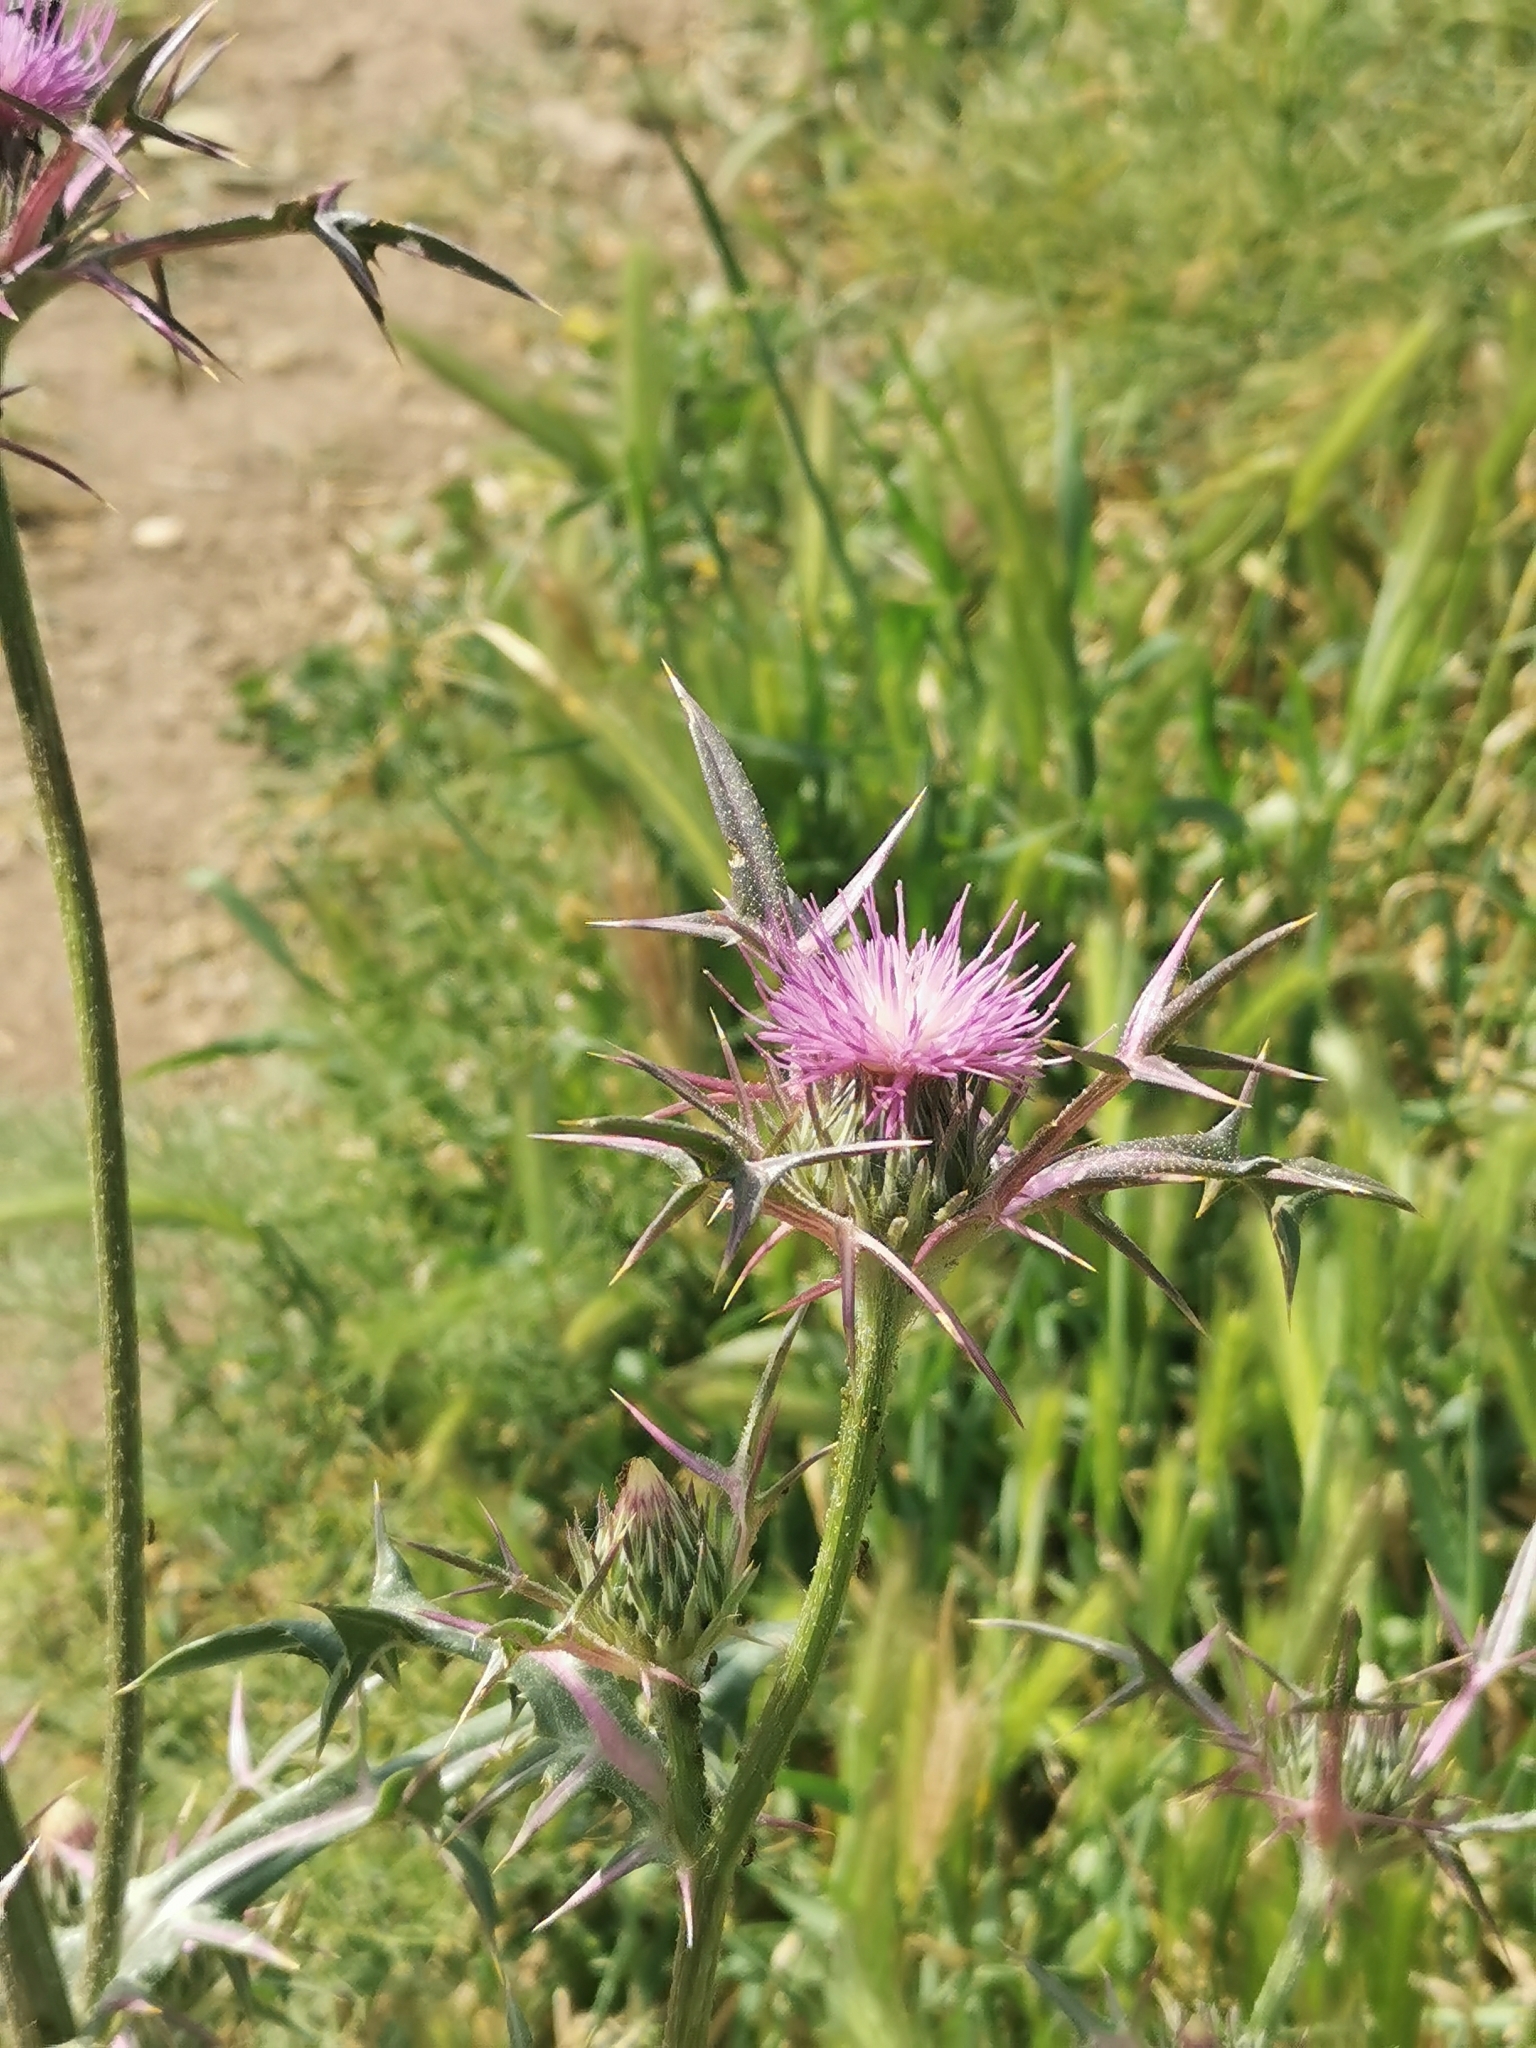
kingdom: Plantae
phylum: Tracheophyta
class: Magnoliopsida
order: Asterales
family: Asteraceae
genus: Notobasis
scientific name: Notobasis syriaca
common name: Syrian thistle
